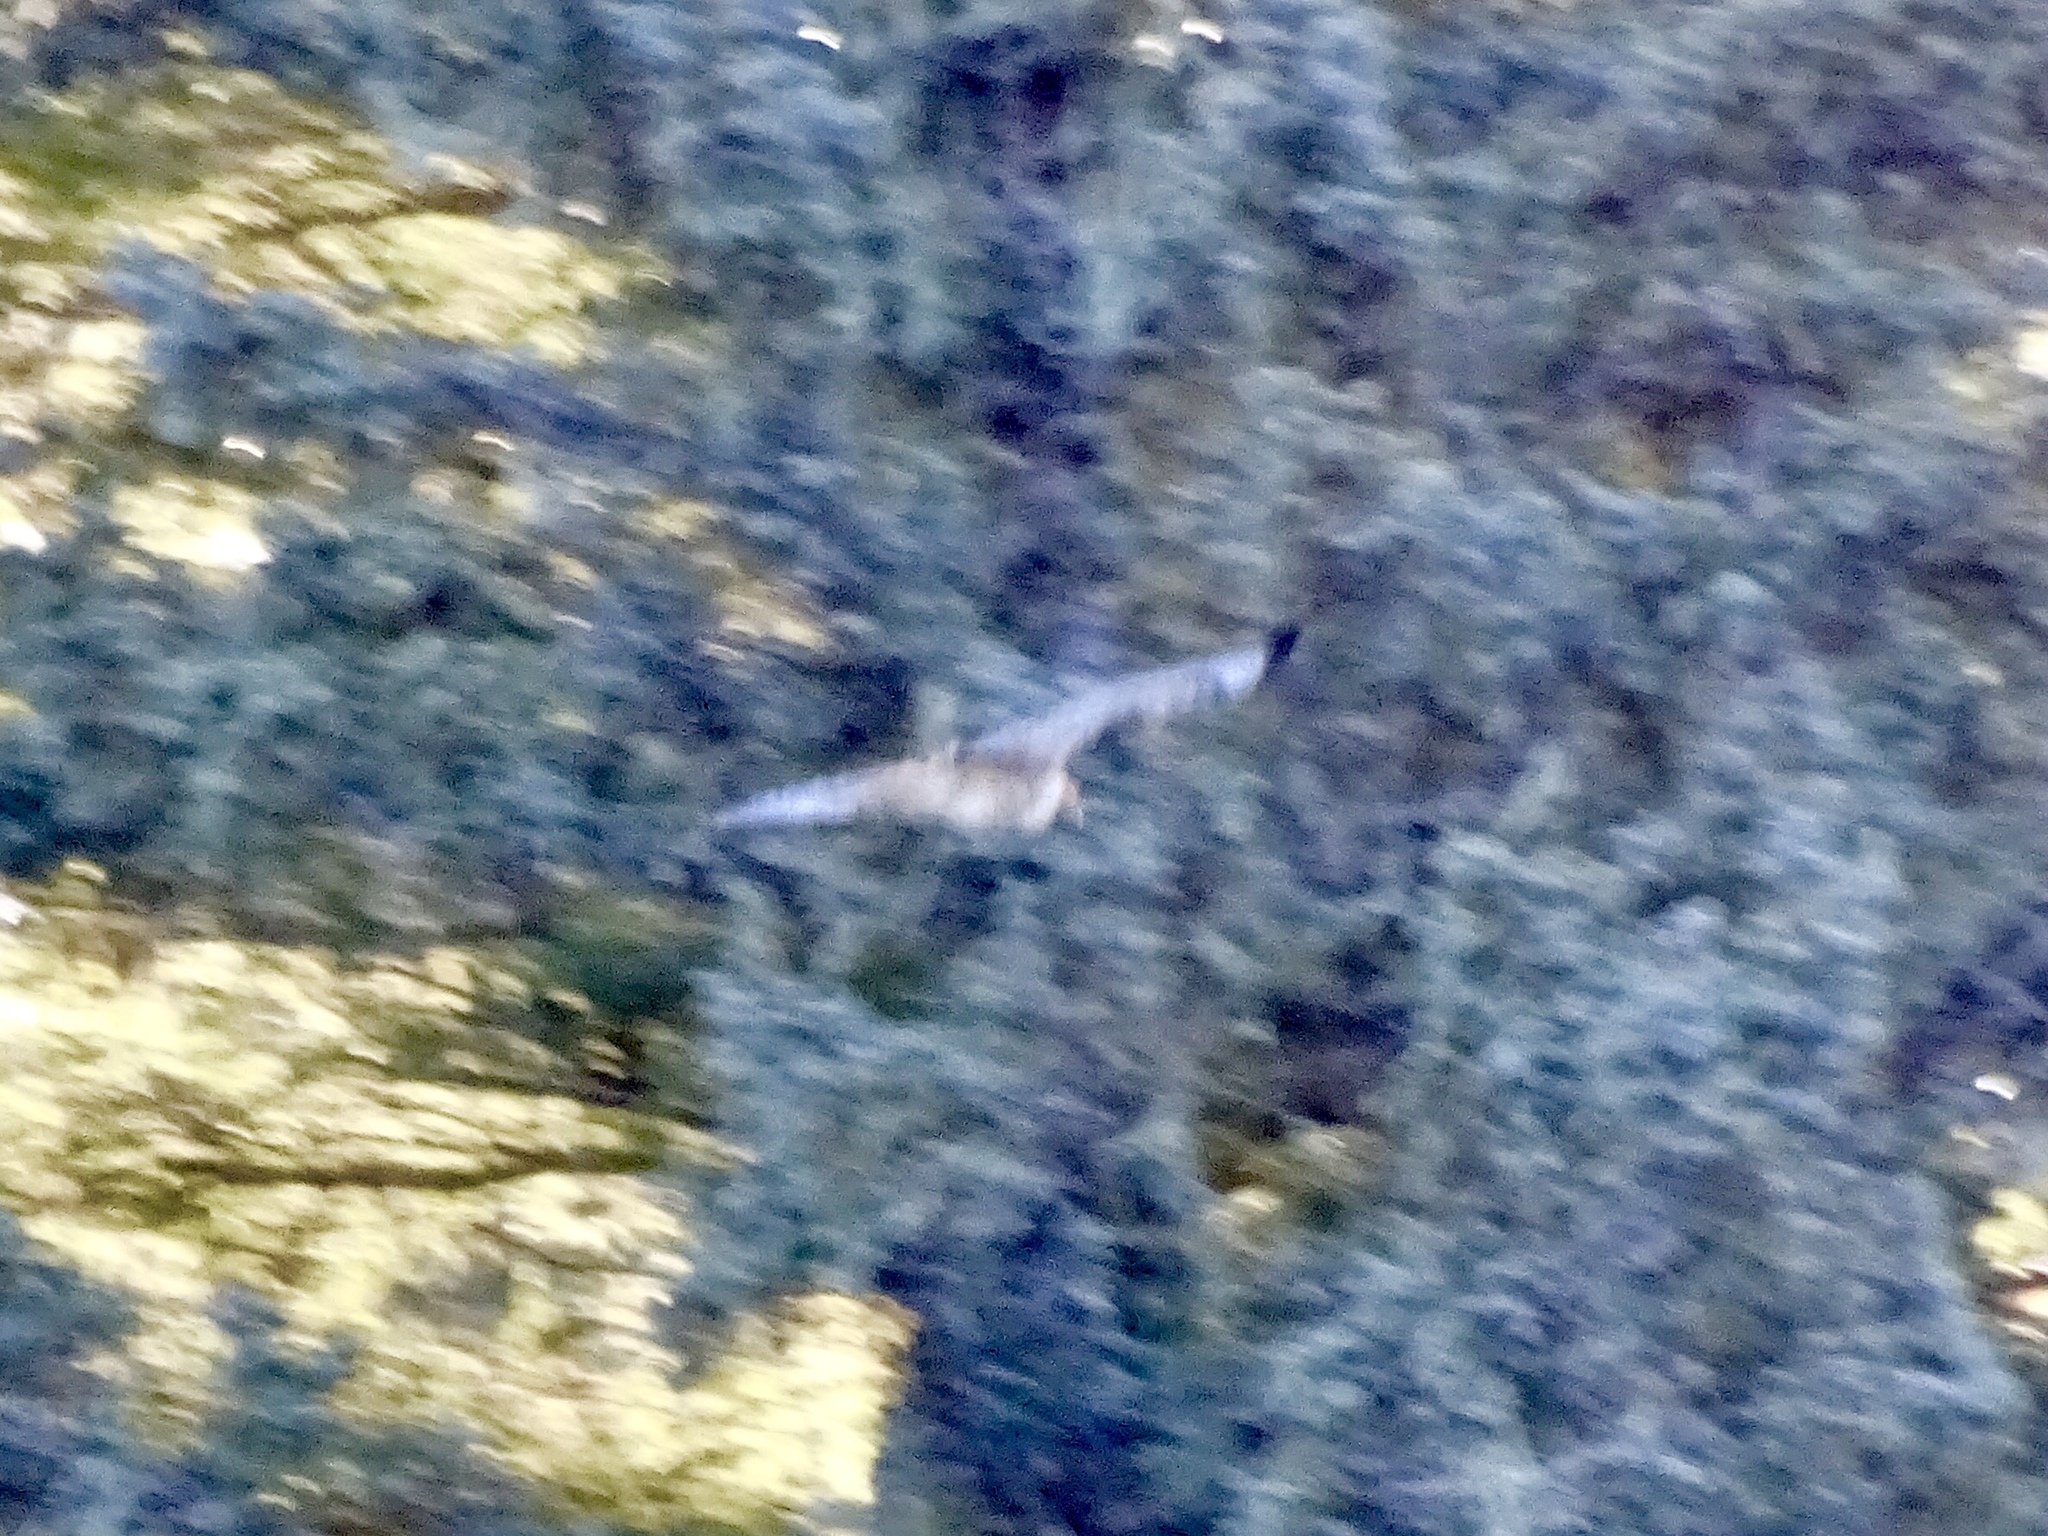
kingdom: Animalia
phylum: Chordata
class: Aves
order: Accipitriformes
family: Accipitridae
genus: Buteo
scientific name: Buteo jamaicensis
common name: Red-tailed hawk
